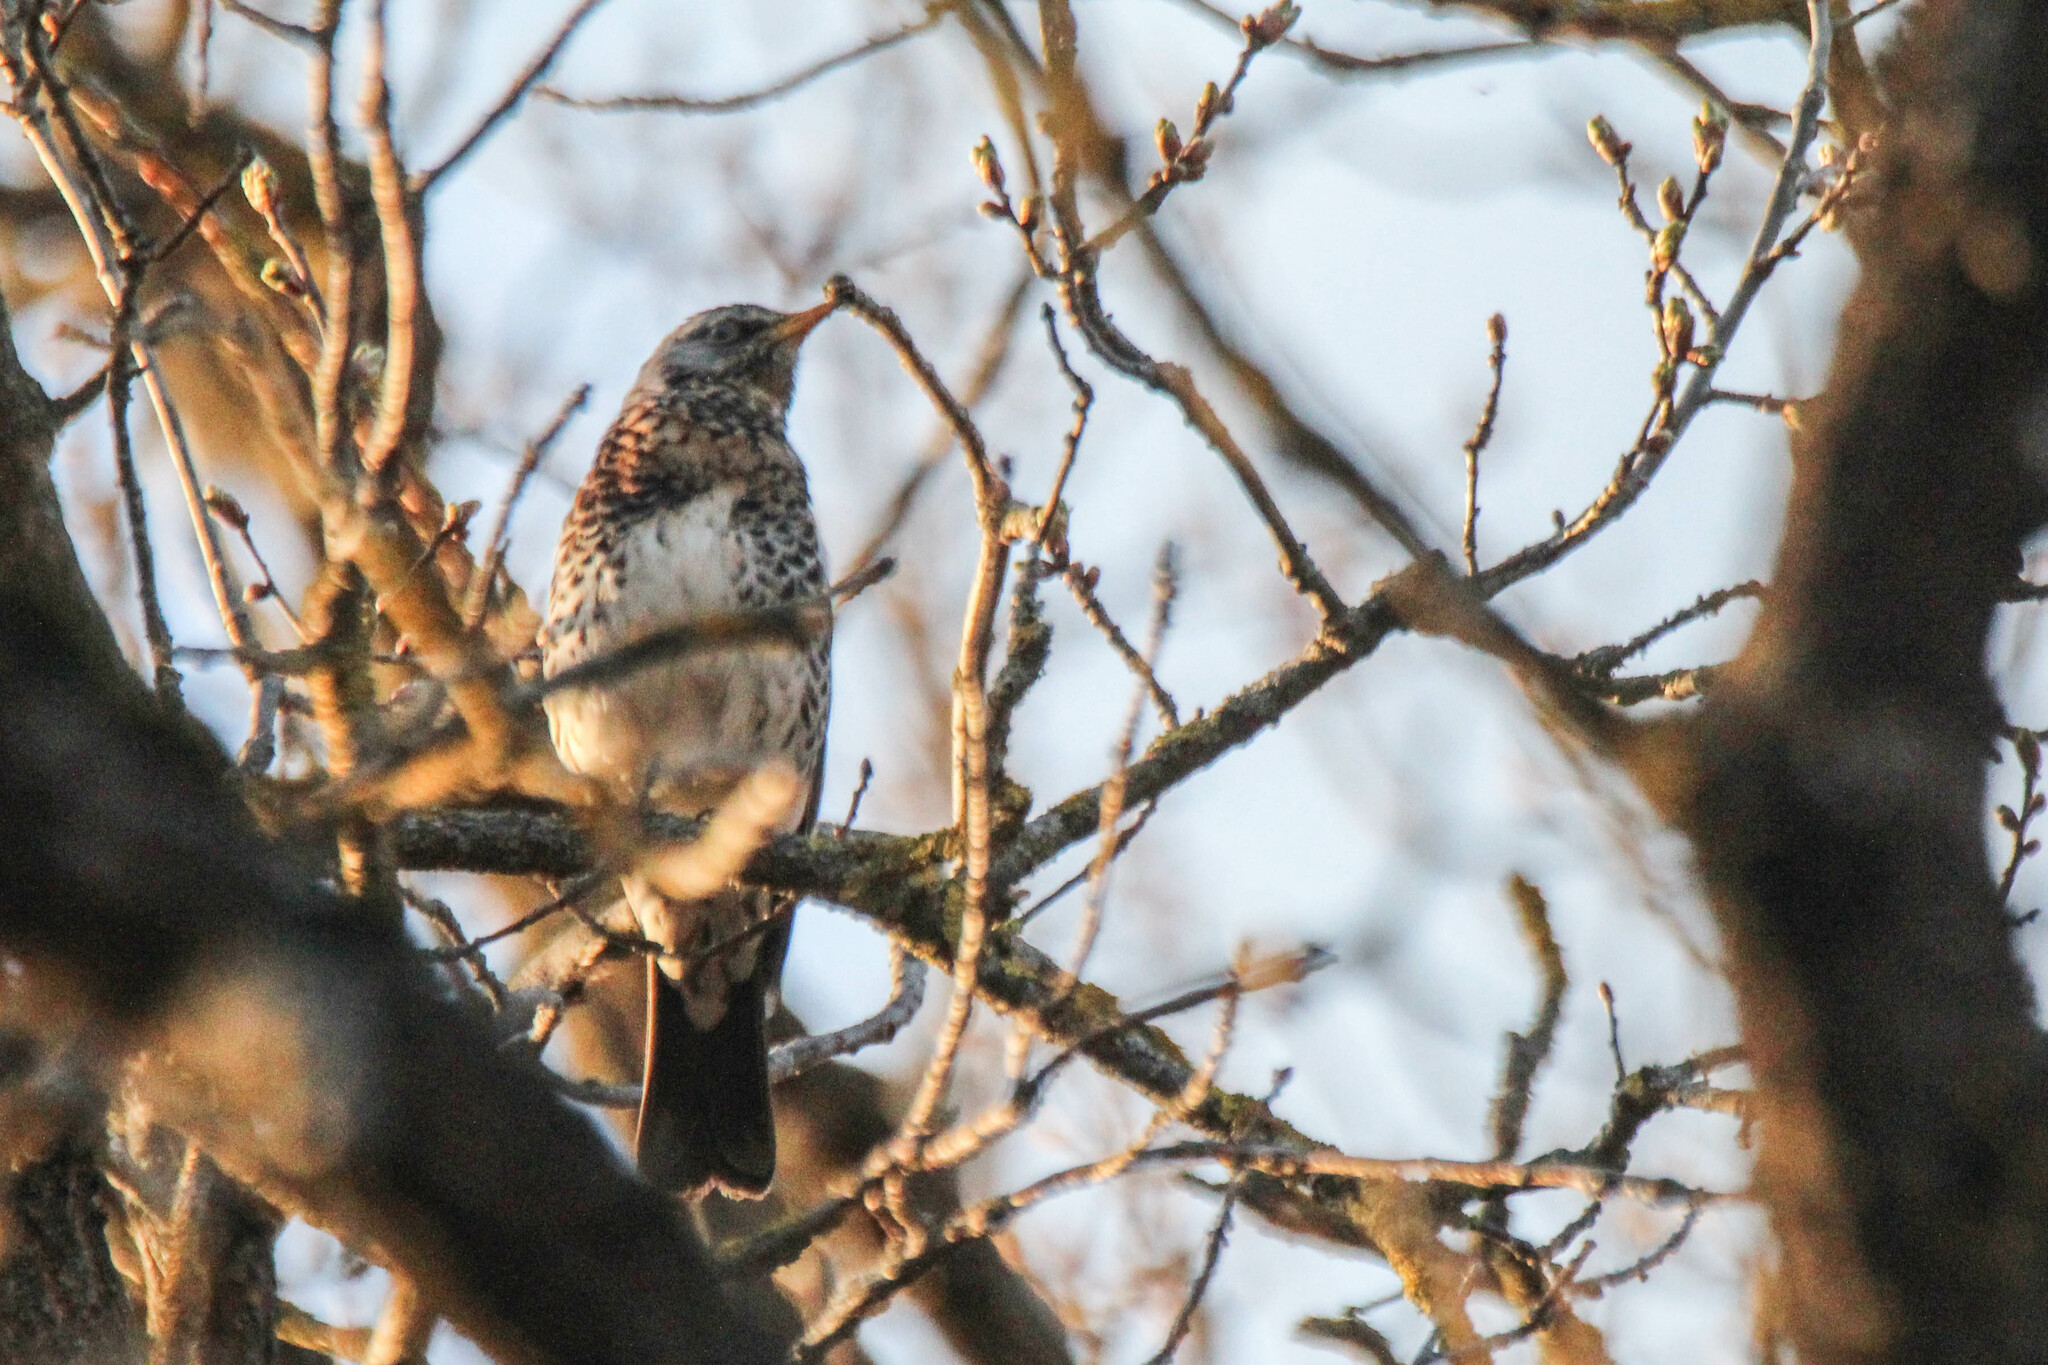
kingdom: Animalia
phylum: Chordata
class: Aves
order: Passeriformes
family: Turdidae
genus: Turdus
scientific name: Turdus pilaris
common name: Fieldfare
